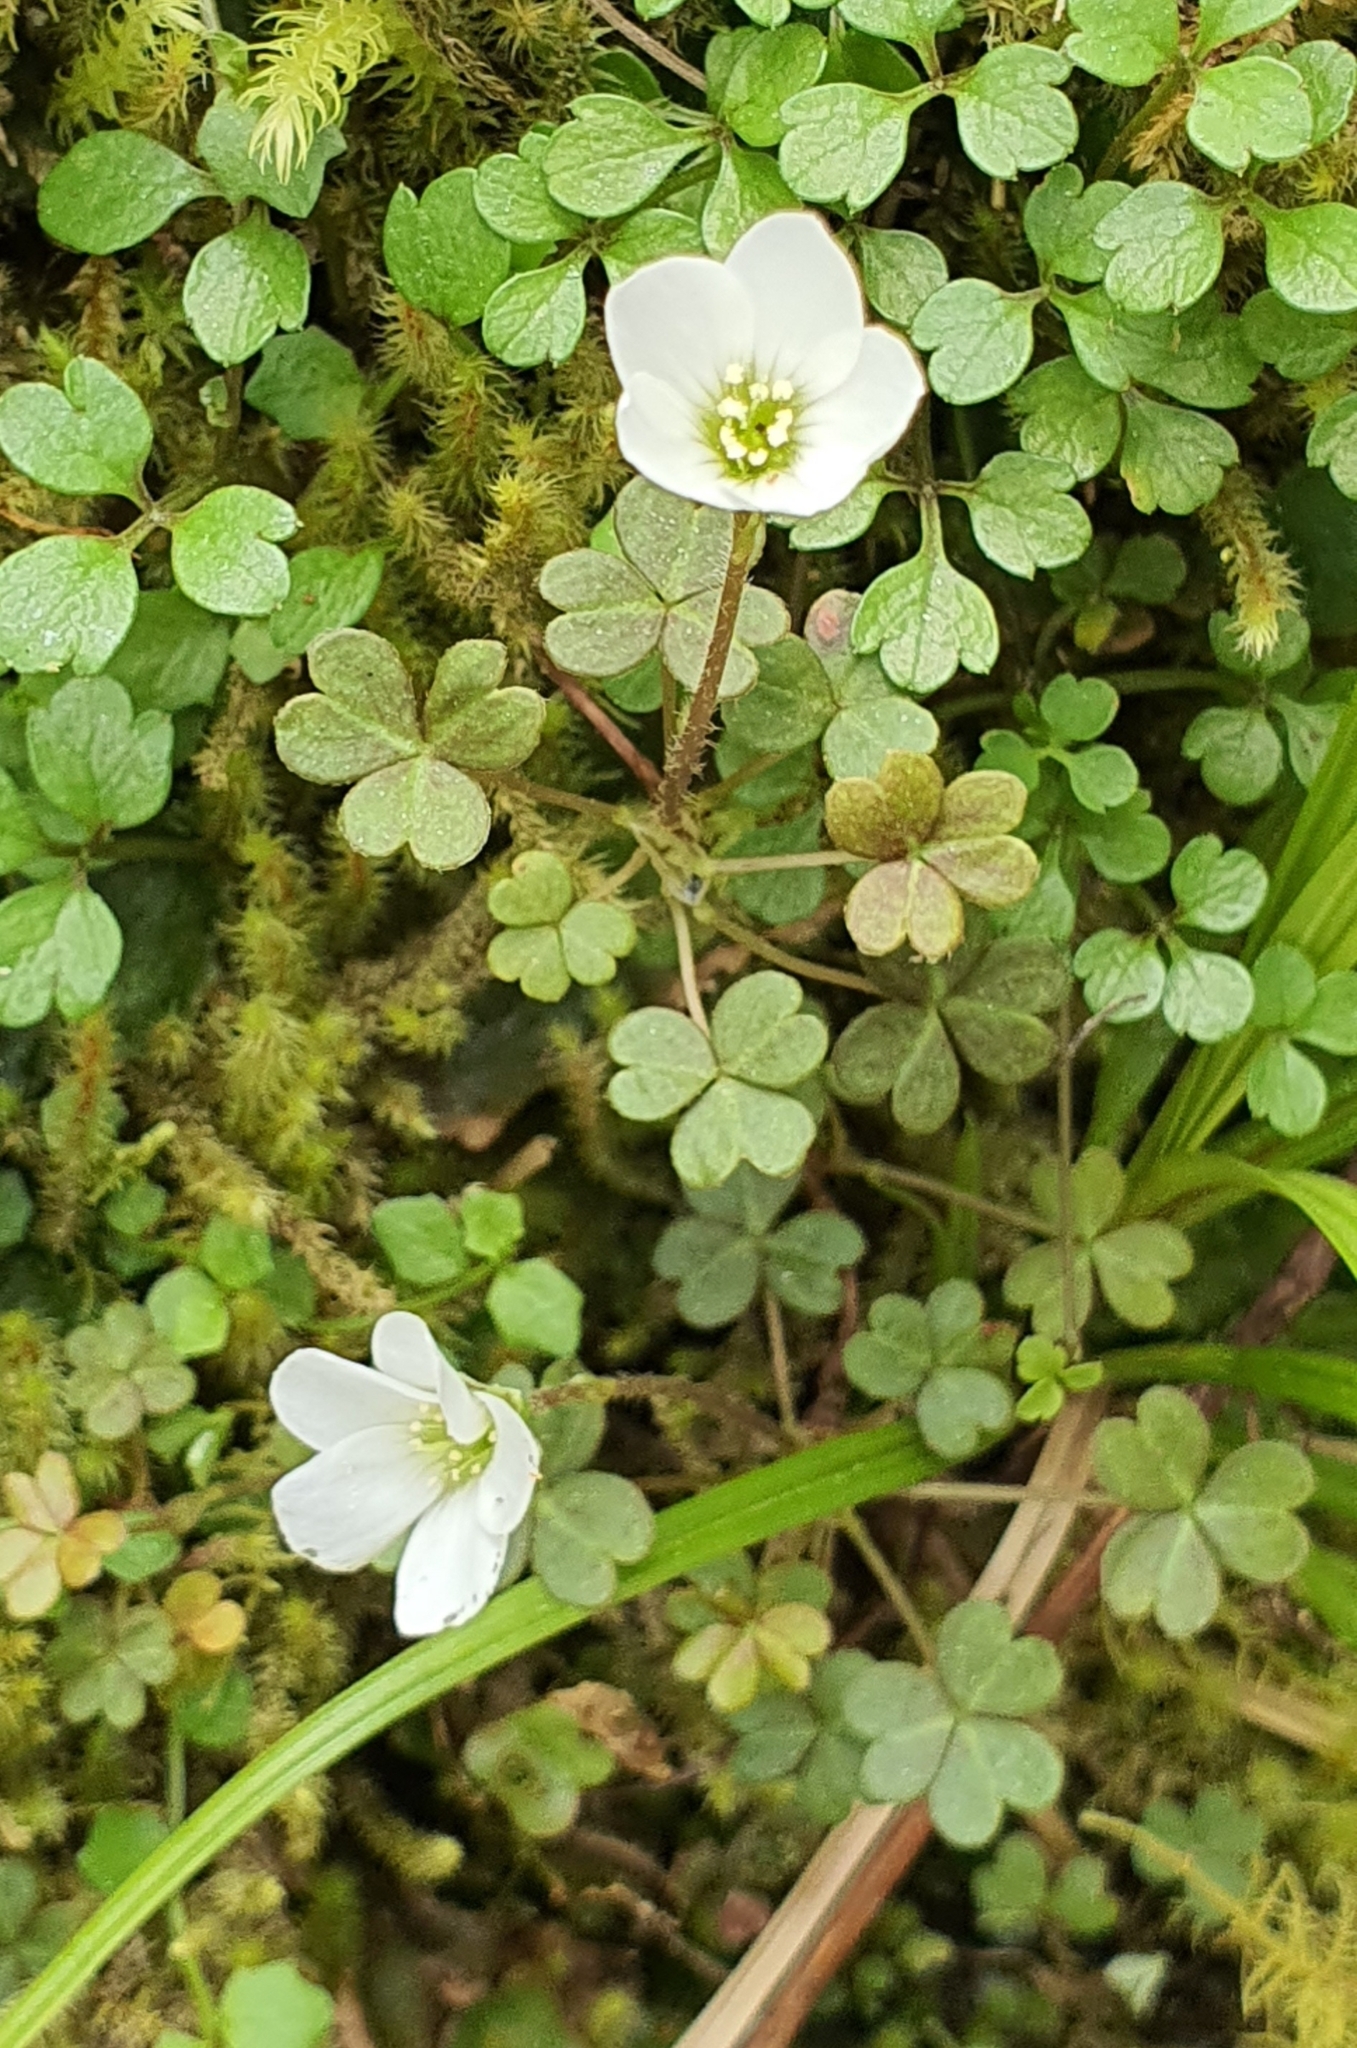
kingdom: Plantae
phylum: Tracheophyta
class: Magnoliopsida
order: Oxalidales
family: Oxalidaceae
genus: Oxalis
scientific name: Oxalis magellanica
